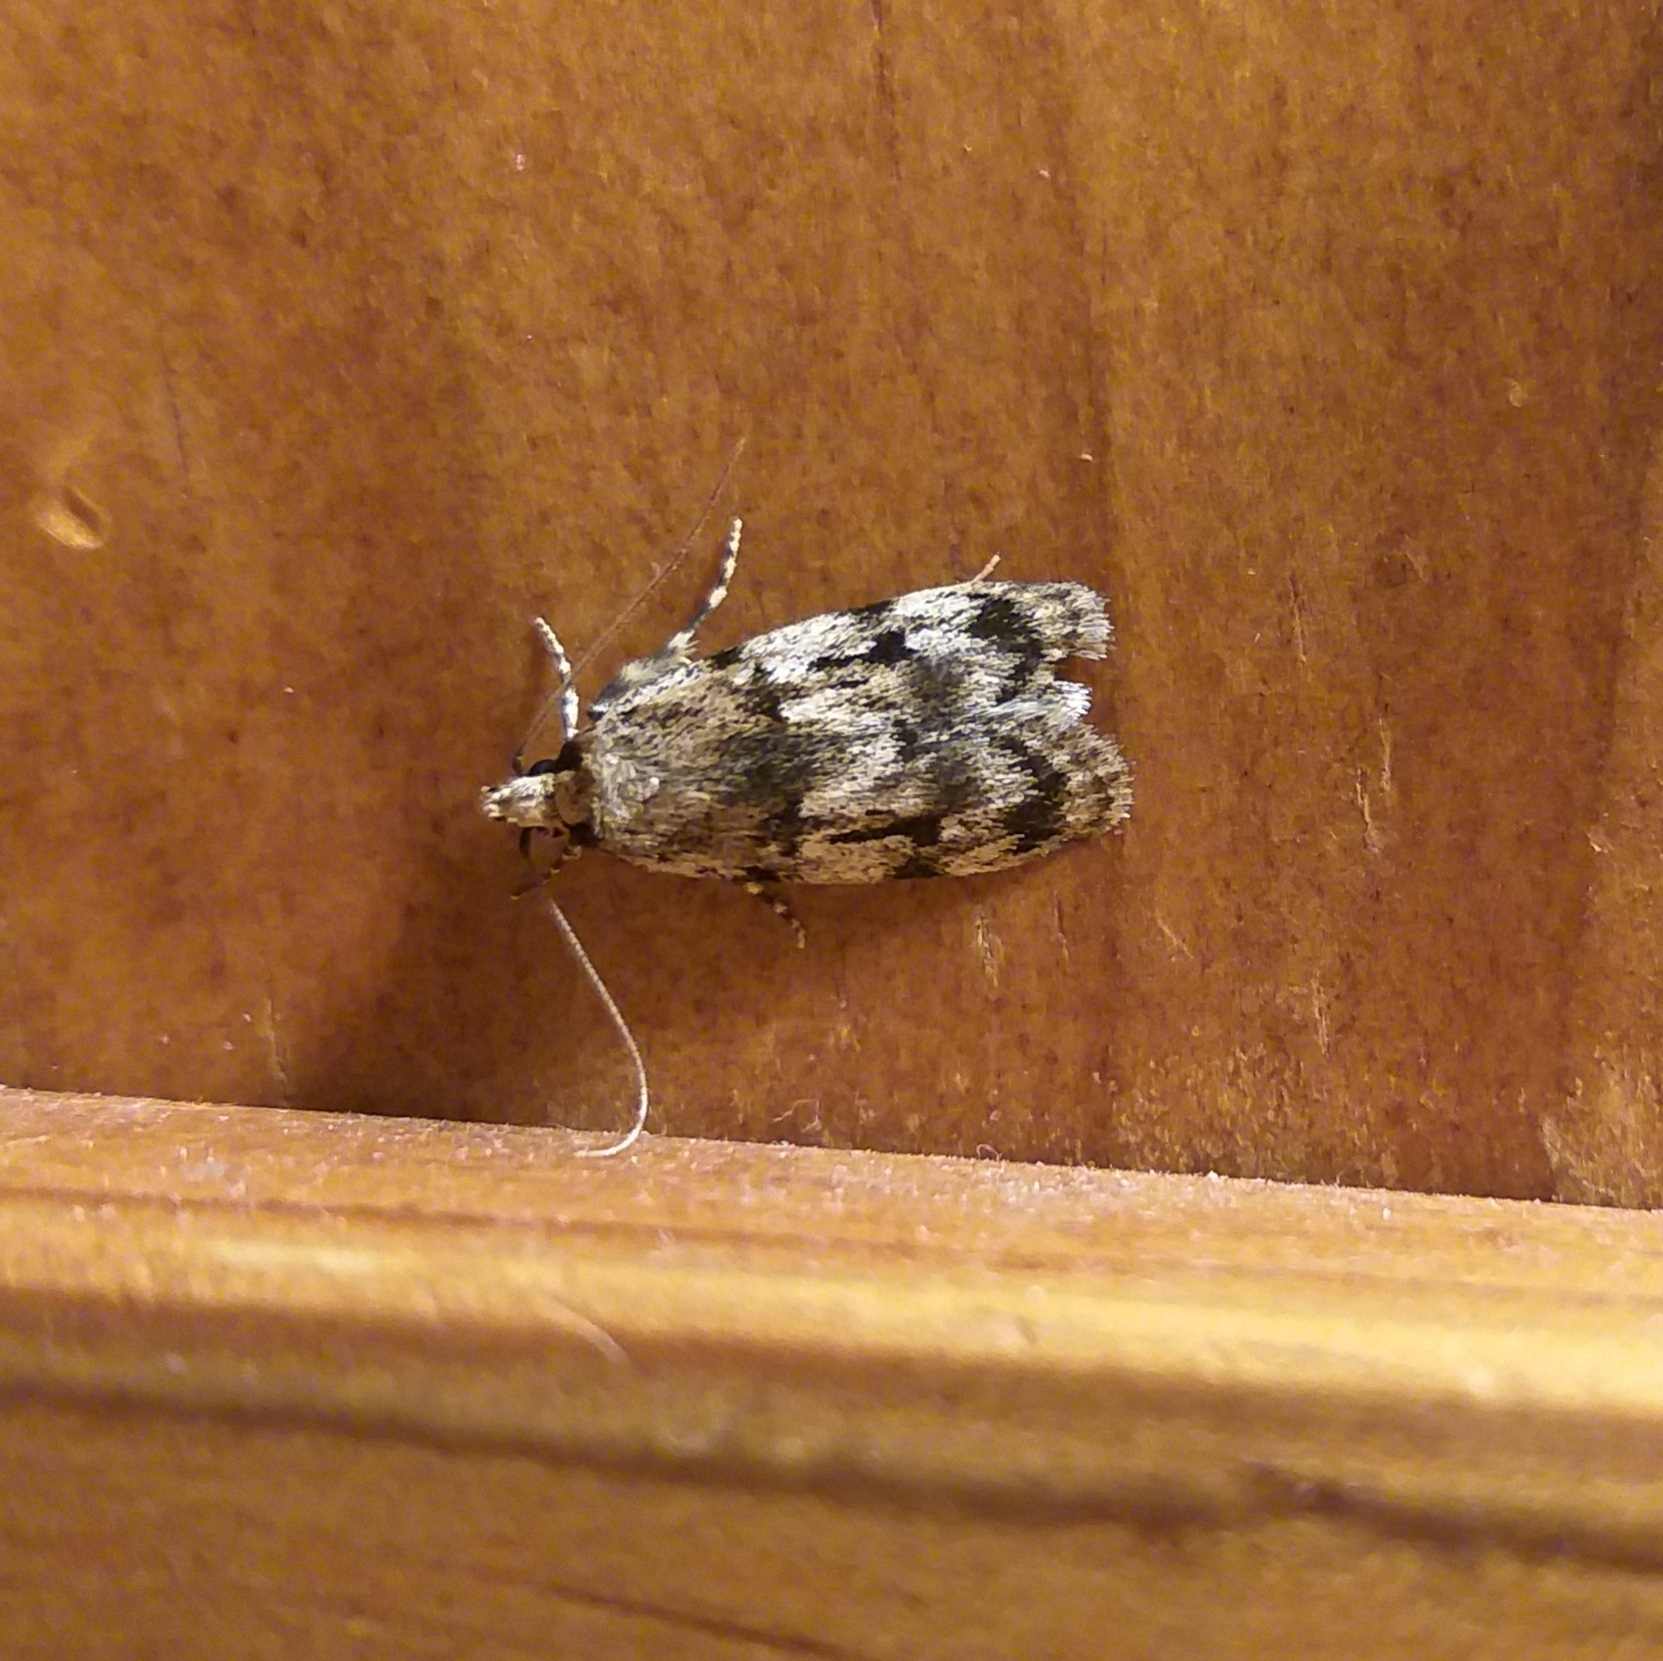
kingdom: Animalia
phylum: Arthropoda
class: Insecta
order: Lepidoptera
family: Oecophoridae
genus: Barea
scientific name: Barea exarcha
